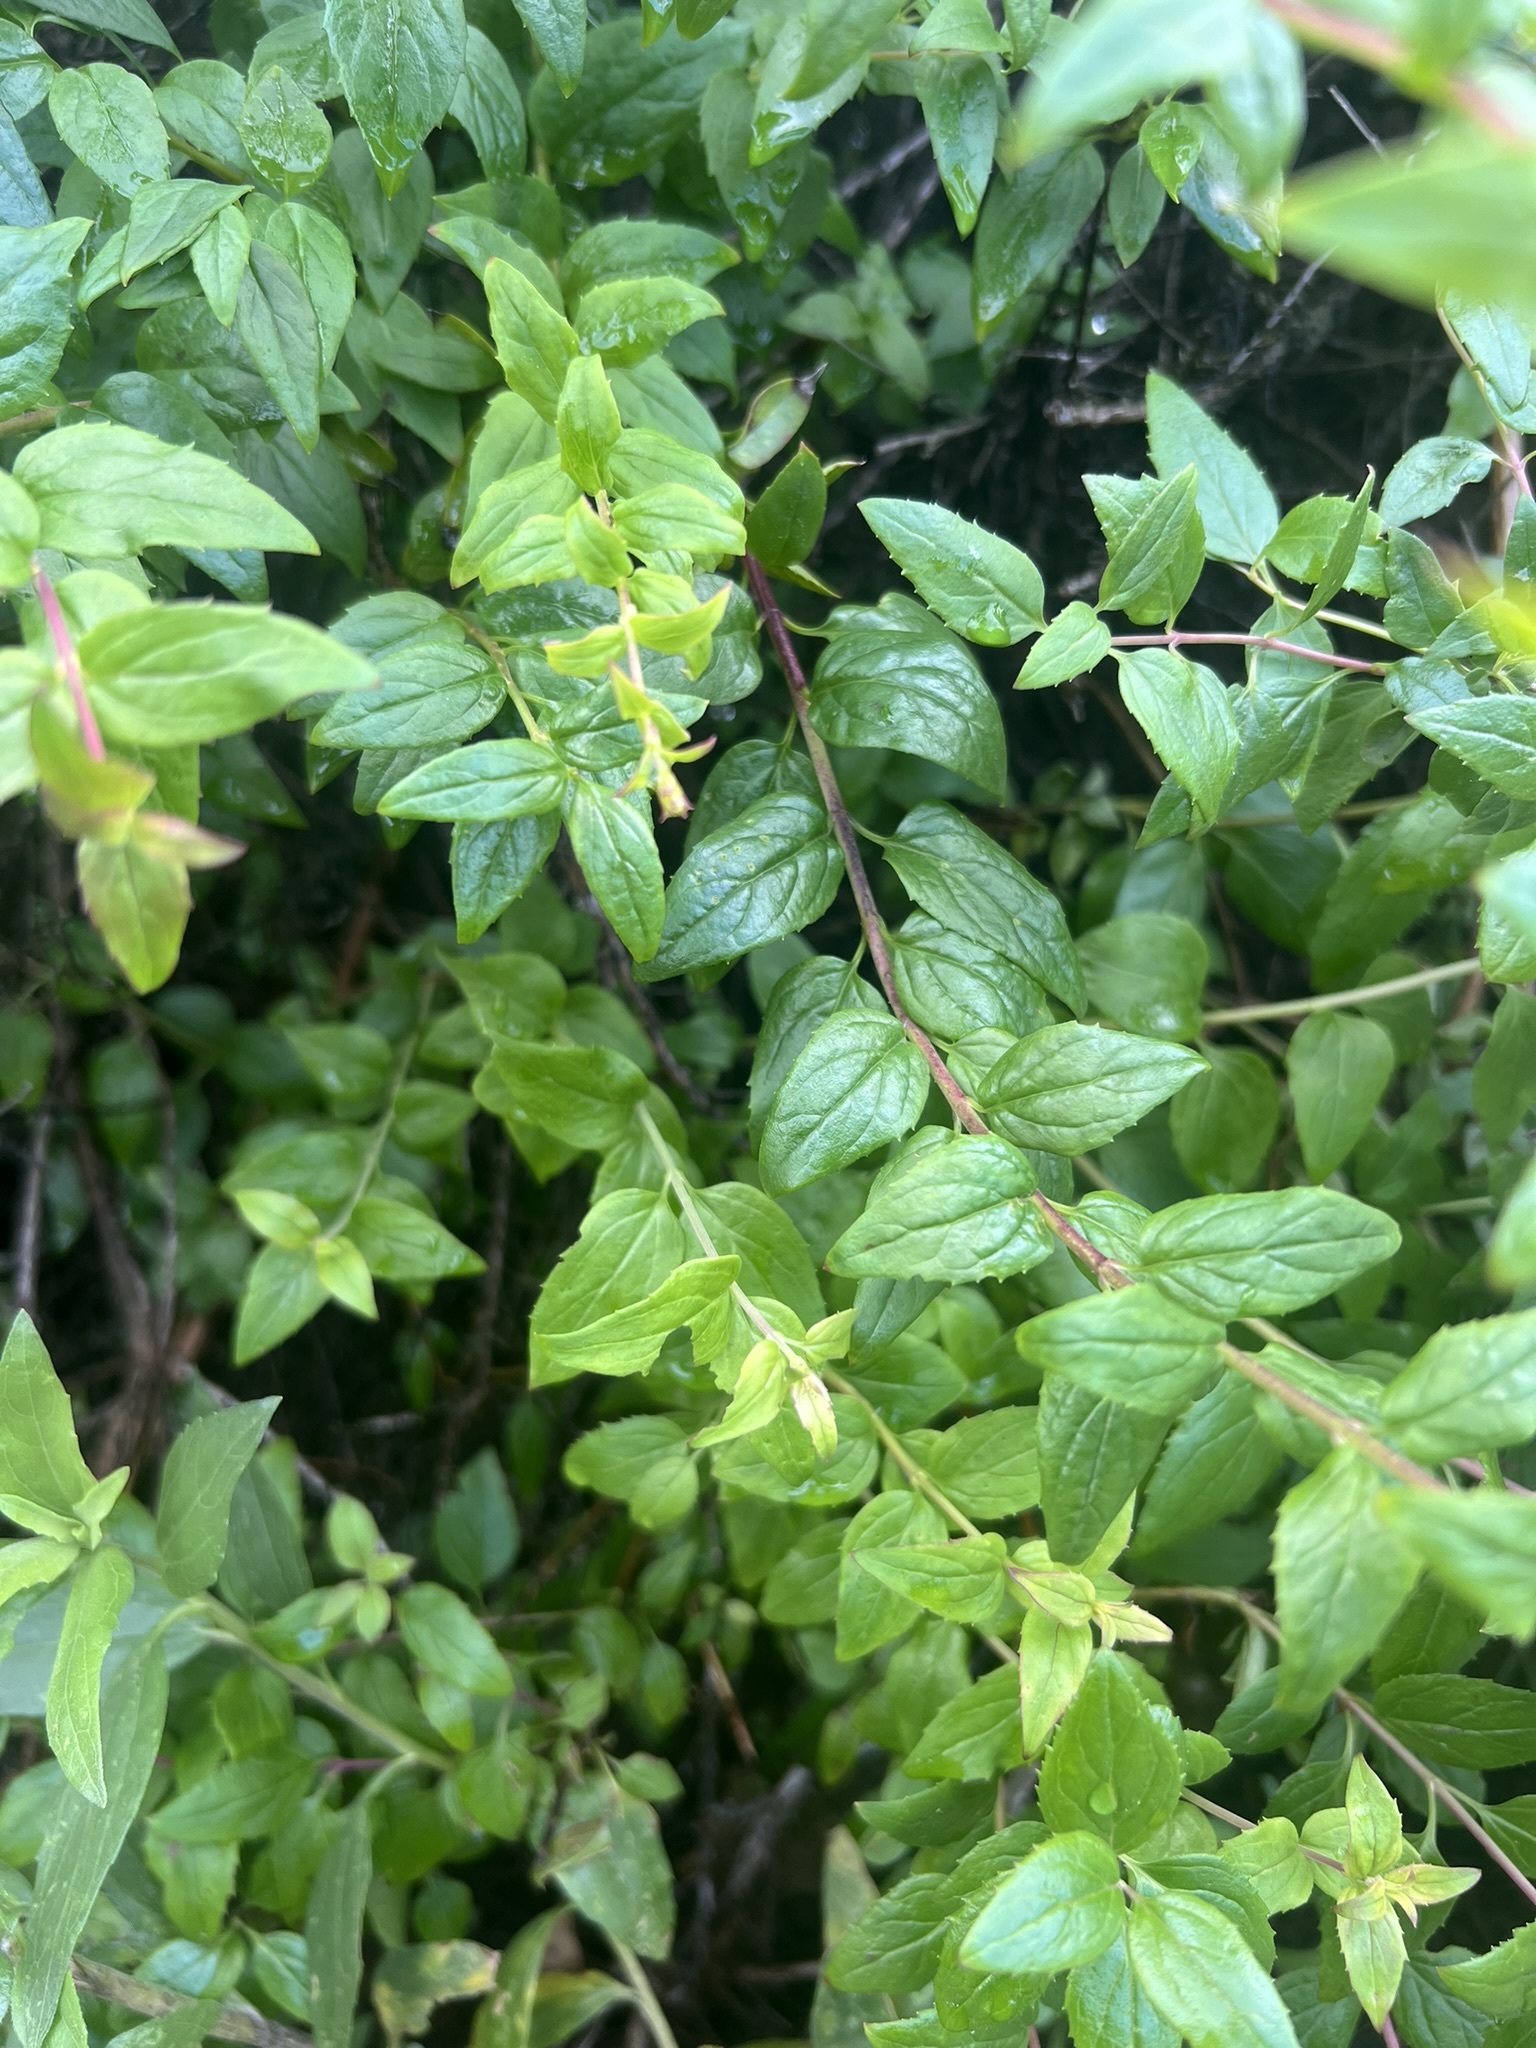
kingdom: Plantae
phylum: Tracheophyta
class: Magnoliopsida
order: Lamiales
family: Plantaginaceae
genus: Keckiella
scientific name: Keckiella cordifolia
